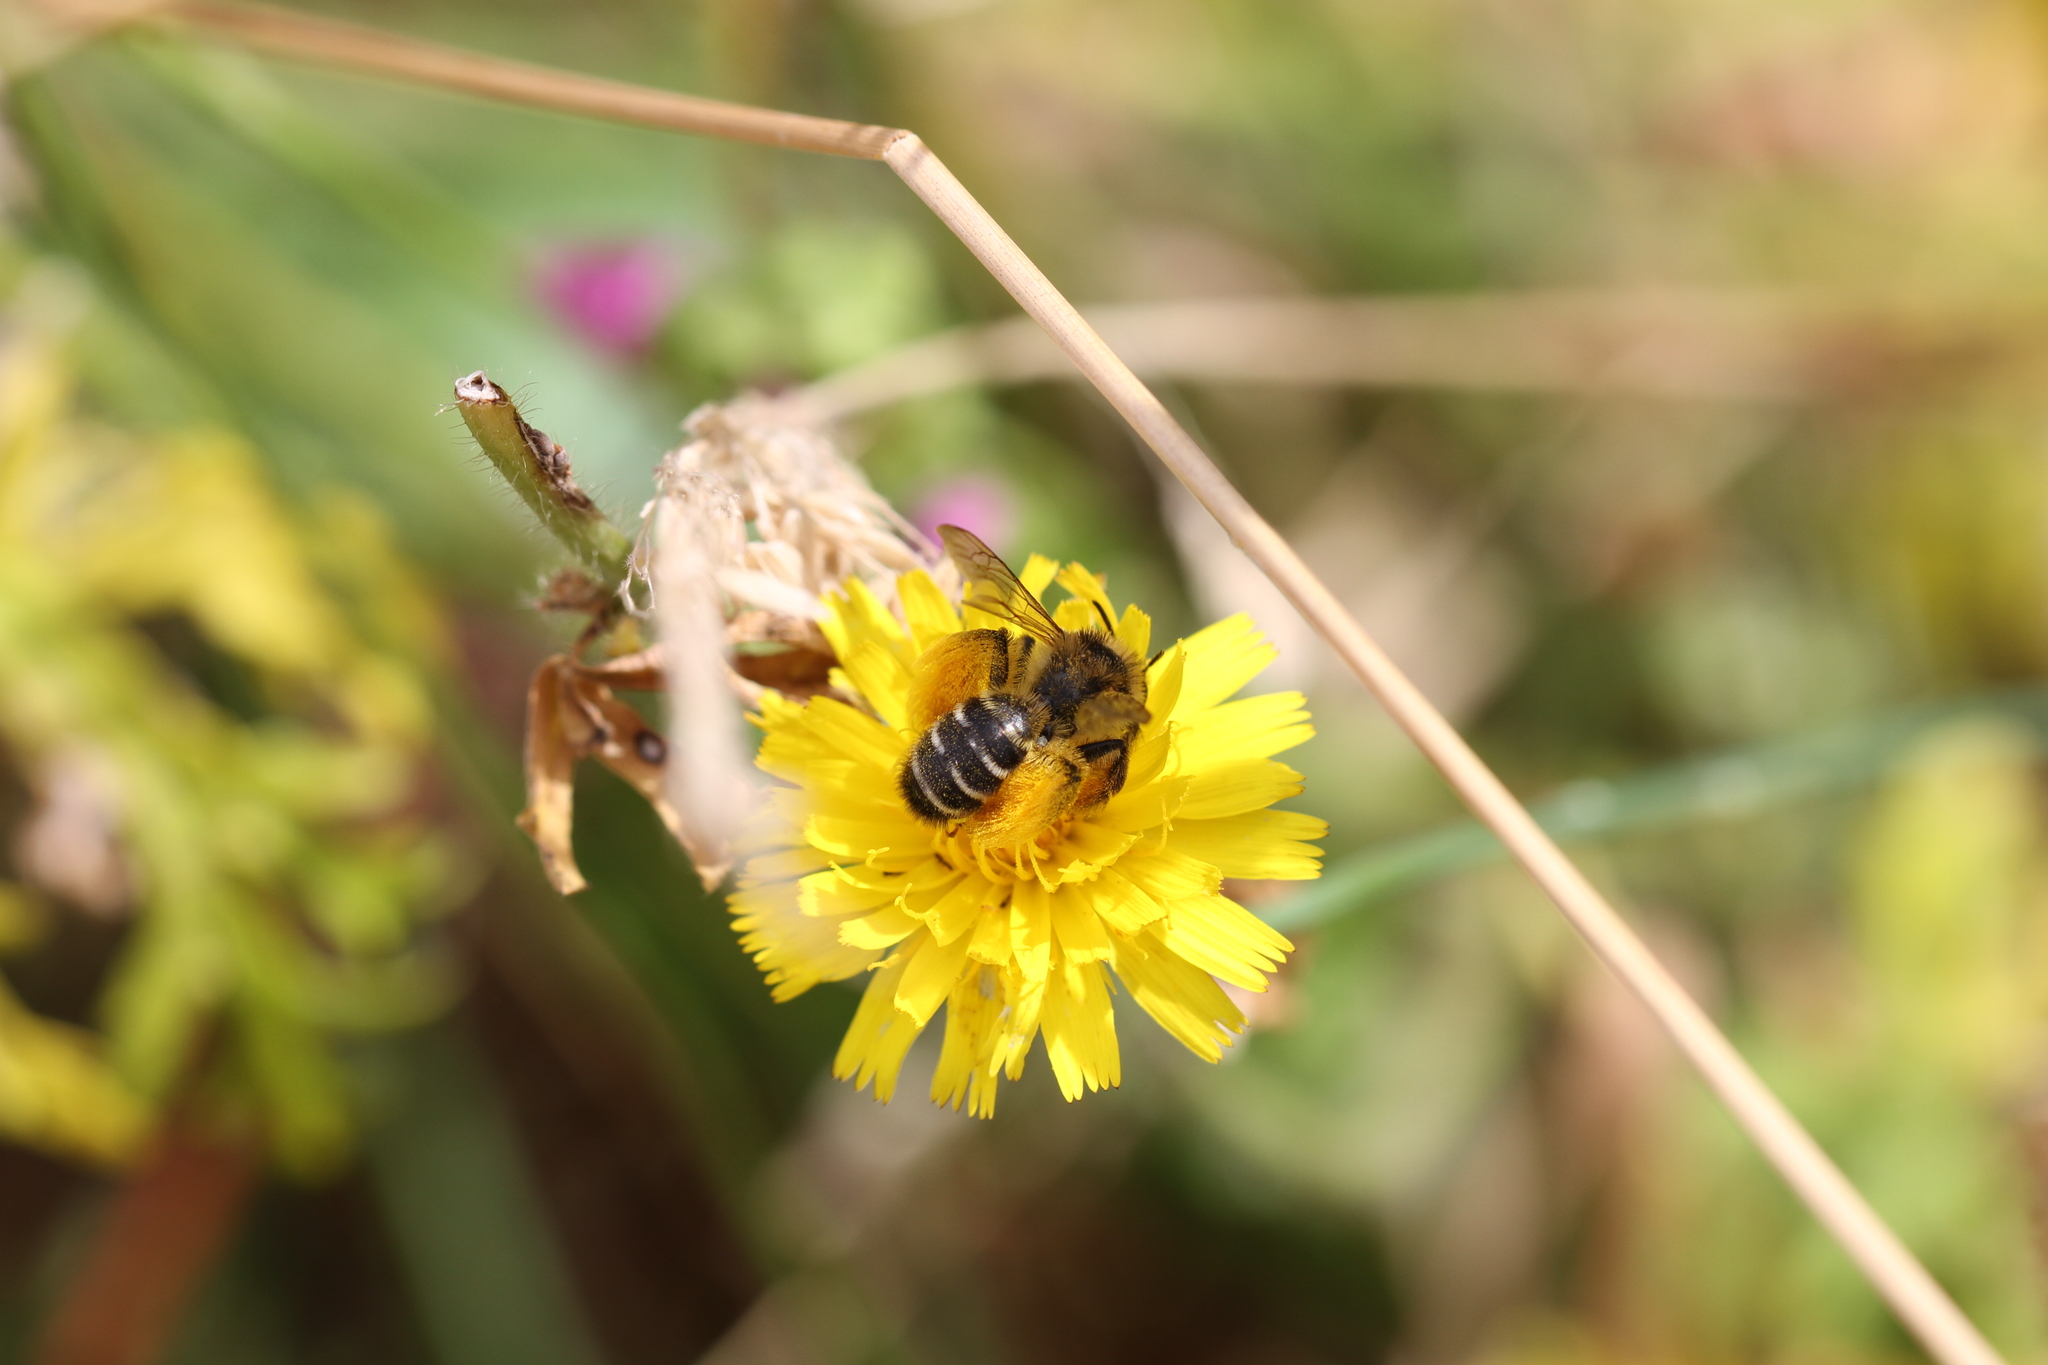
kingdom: Animalia
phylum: Arthropoda
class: Insecta
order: Hymenoptera
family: Melittidae
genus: Dasypoda
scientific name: Dasypoda hirtipes
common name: Pantaloon bee
